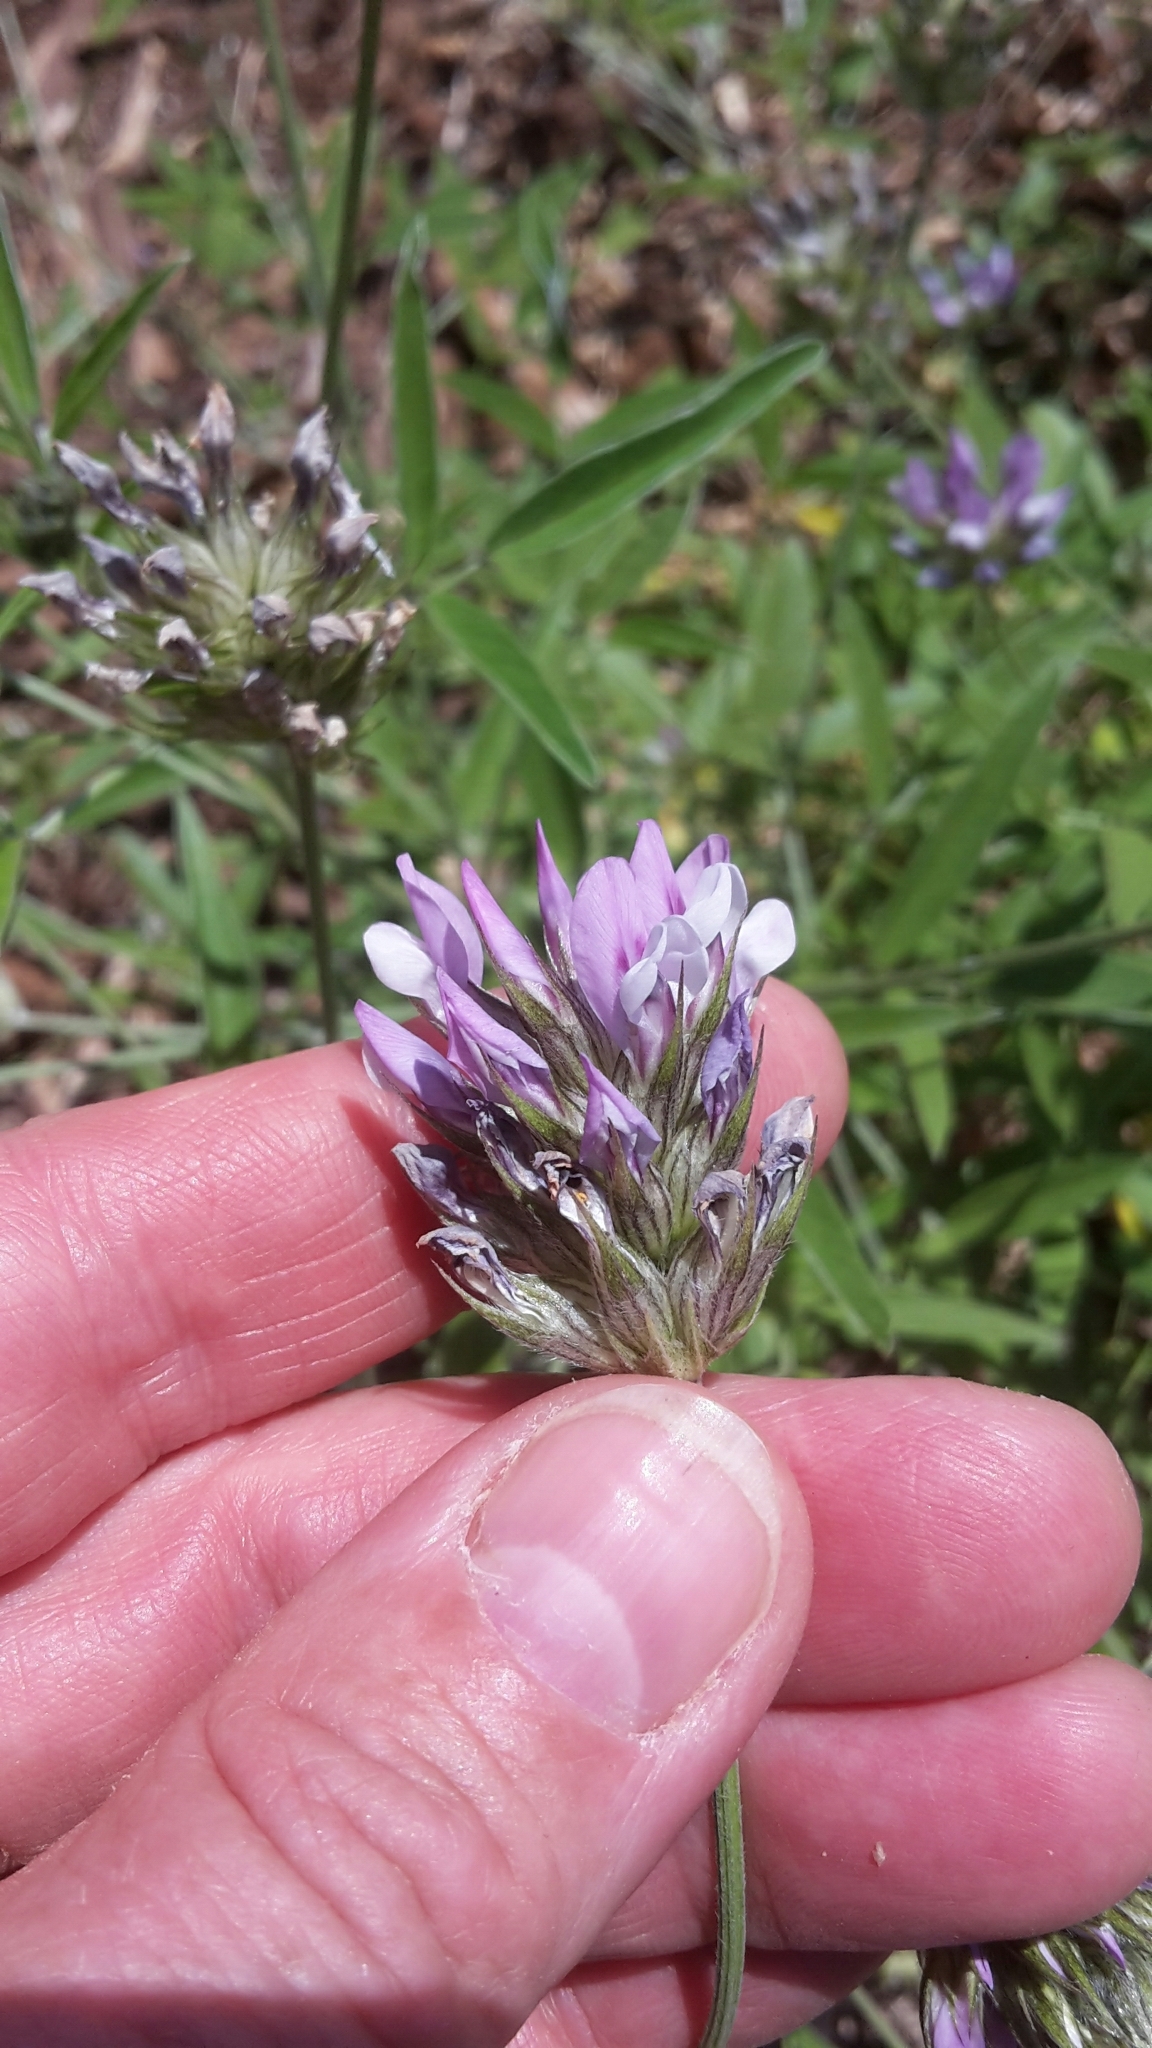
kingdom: Plantae
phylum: Tracheophyta
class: Magnoliopsida
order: Fabales
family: Fabaceae
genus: Bituminaria
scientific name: Bituminaria bituminosa
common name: Arabian pea
